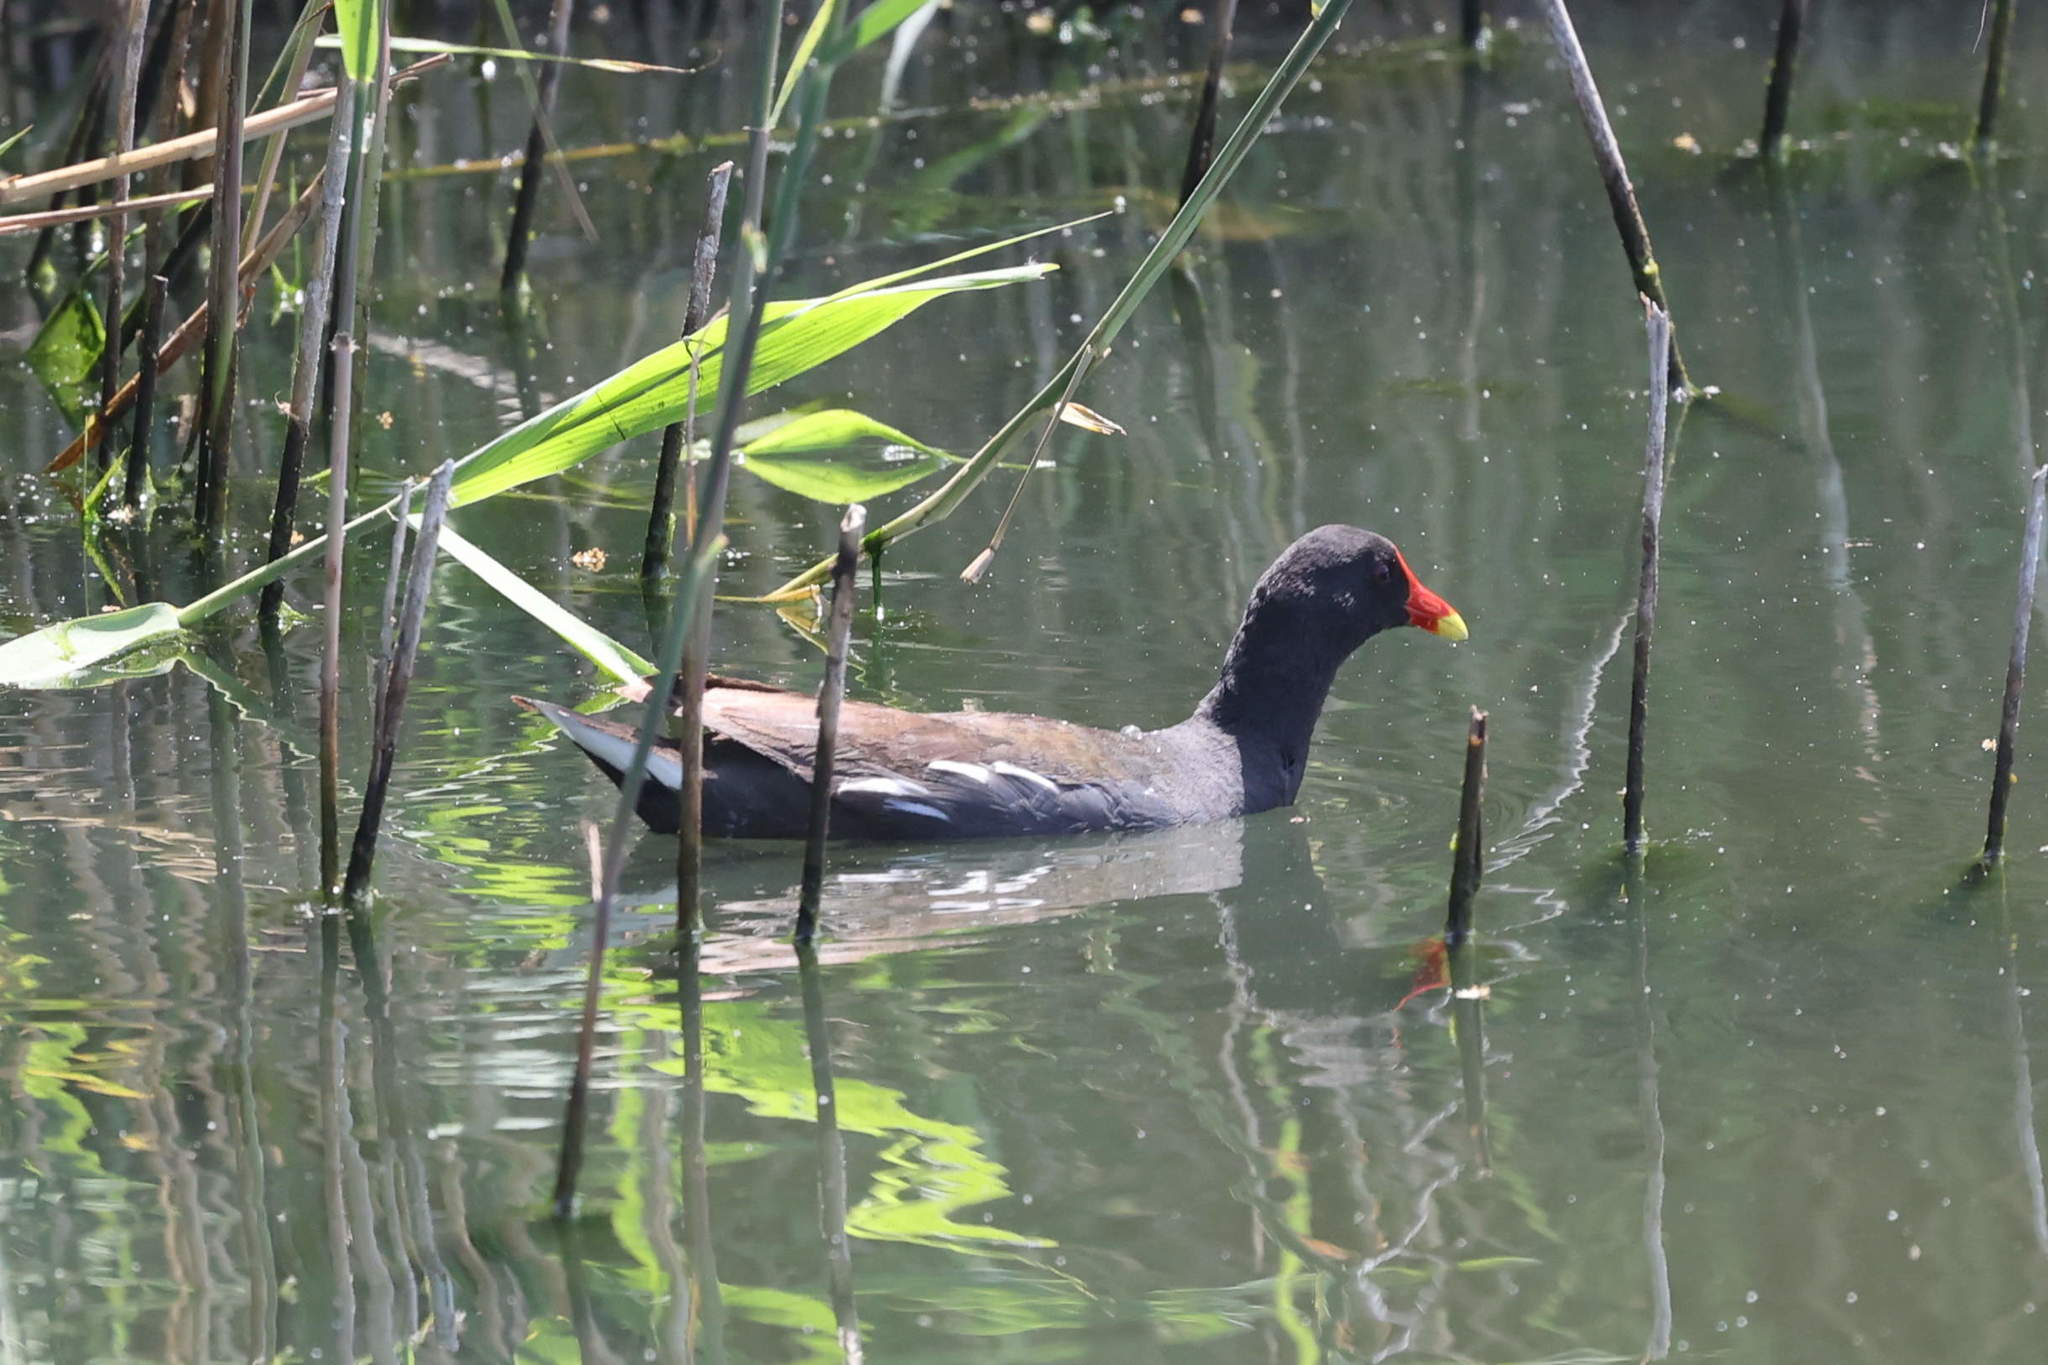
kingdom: Animalia
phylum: Chordata
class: Aves
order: Gruiformes
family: Rallidae
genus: Gallinula
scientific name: Gallinula chloropus
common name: Common moorhen
